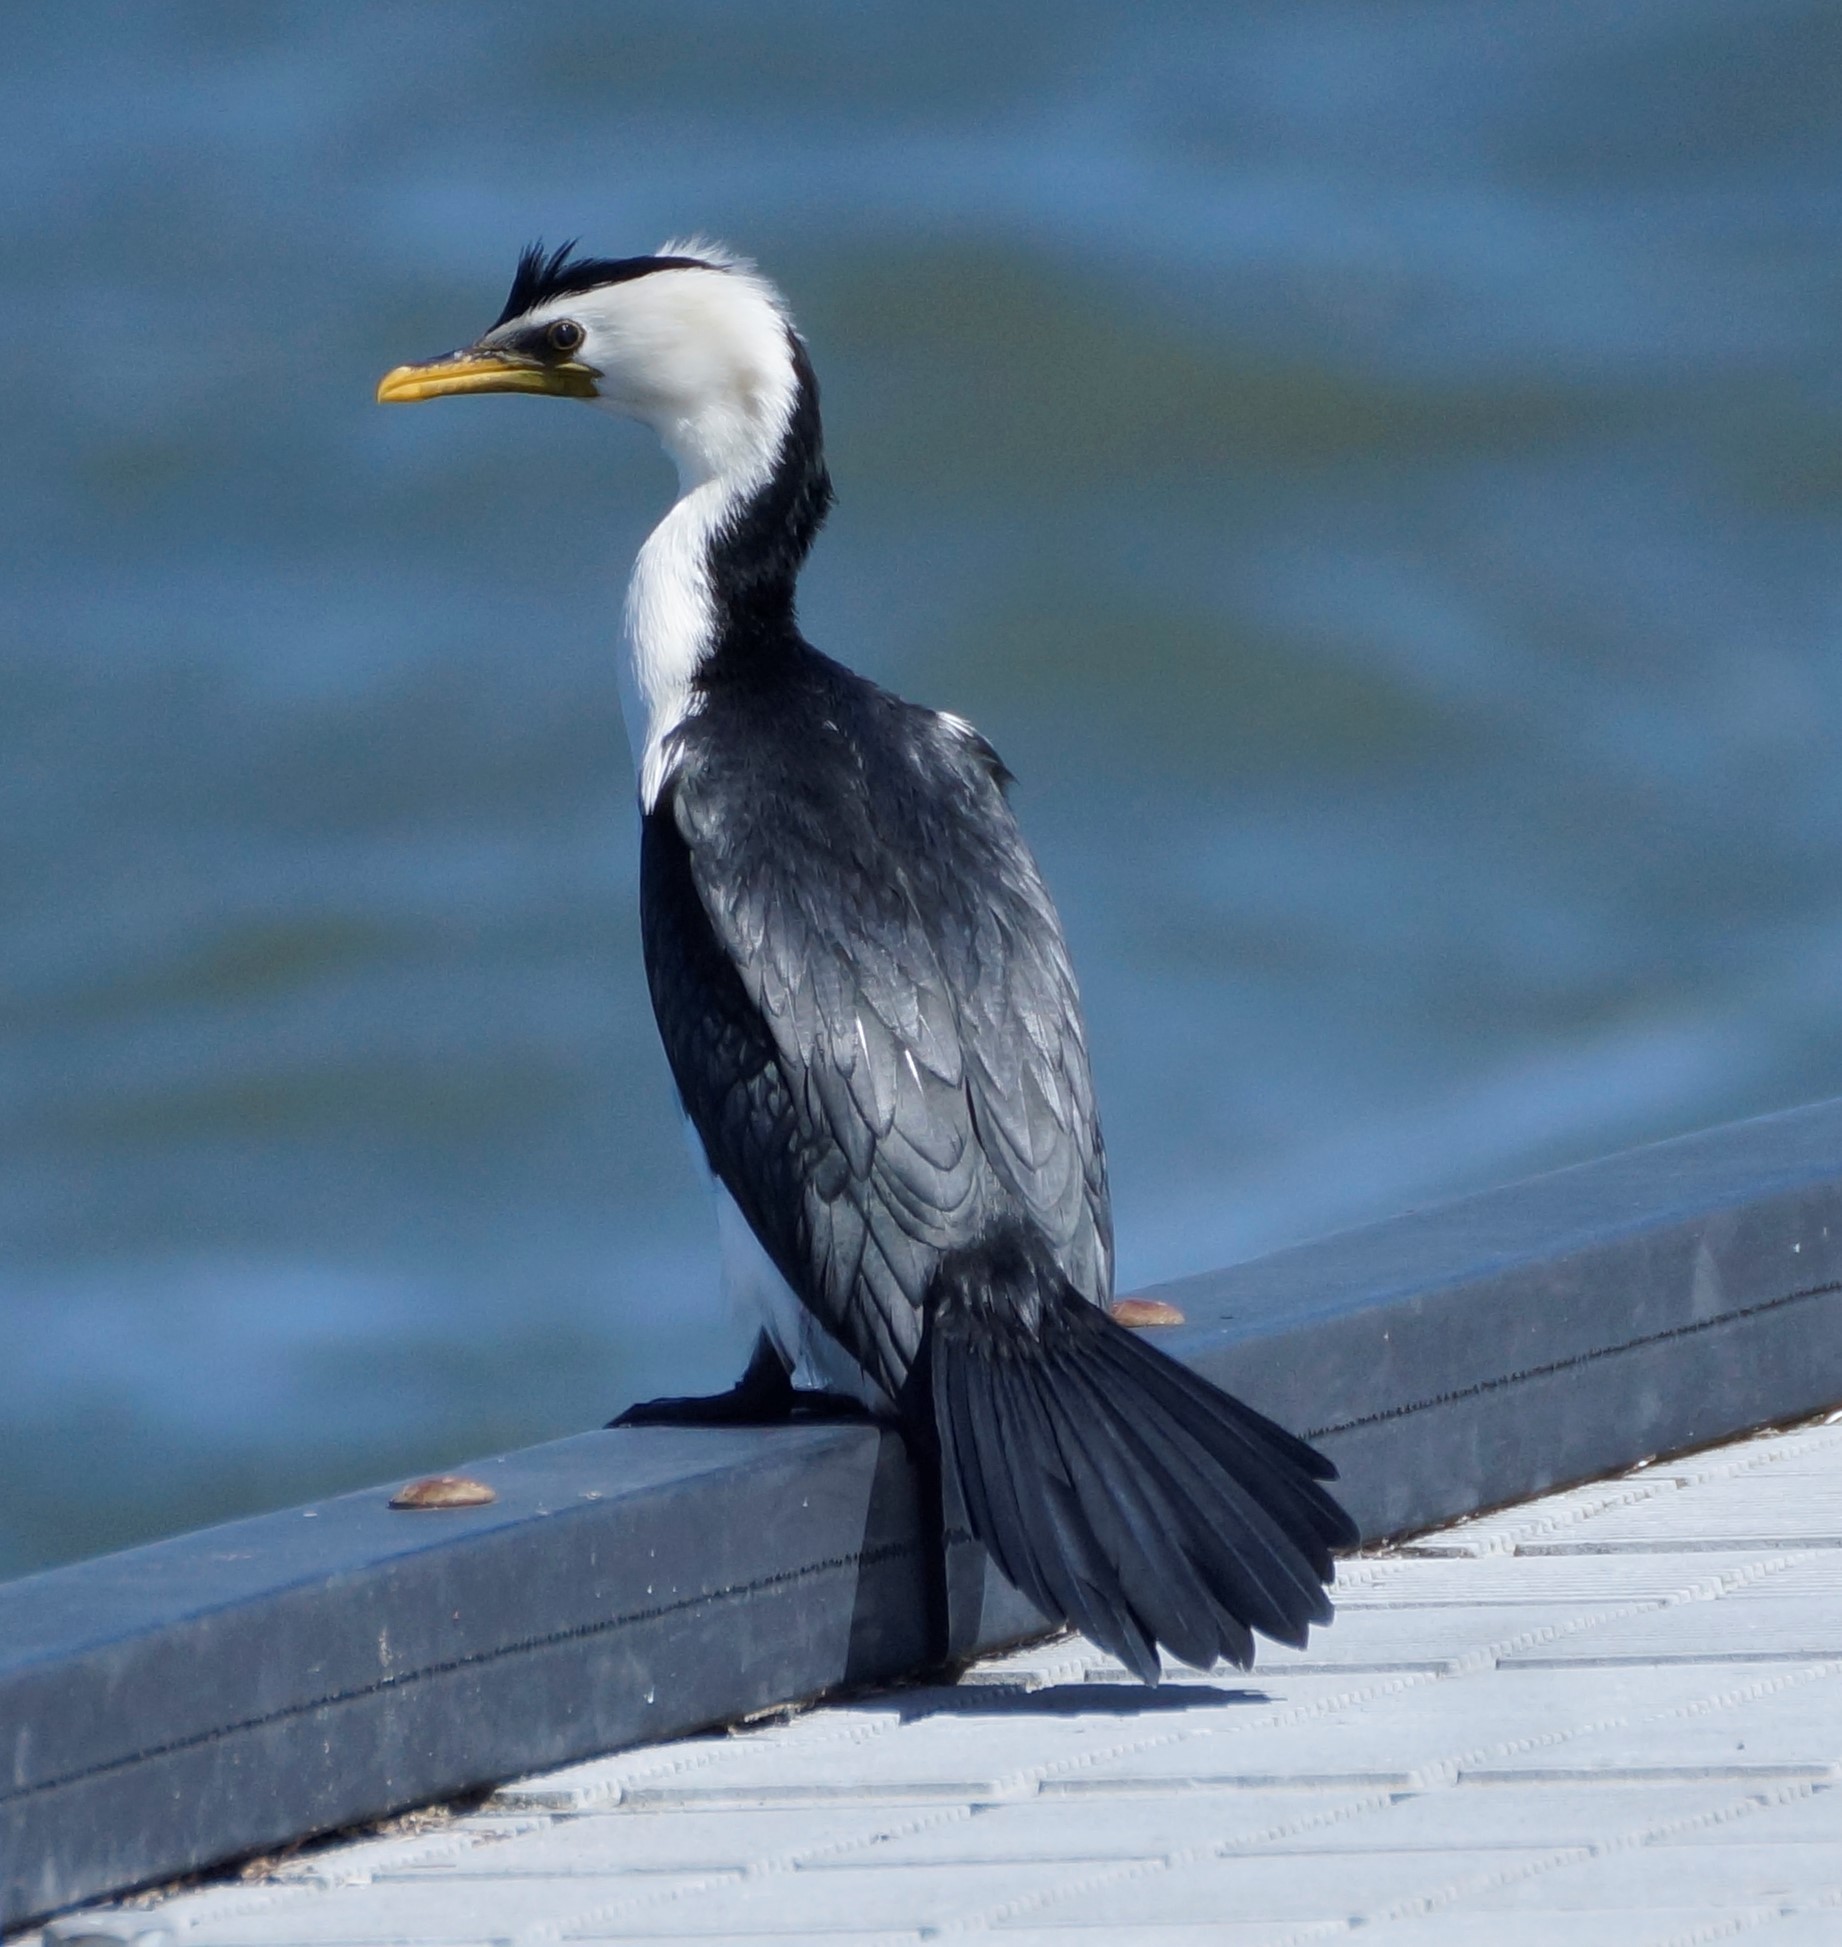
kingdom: Animalia
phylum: Chordata
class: Aves
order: Suliformes
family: Phalacrocoracidae
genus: Microcarbo
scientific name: Microcarbo melanoleucos
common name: Little pied cormorant
